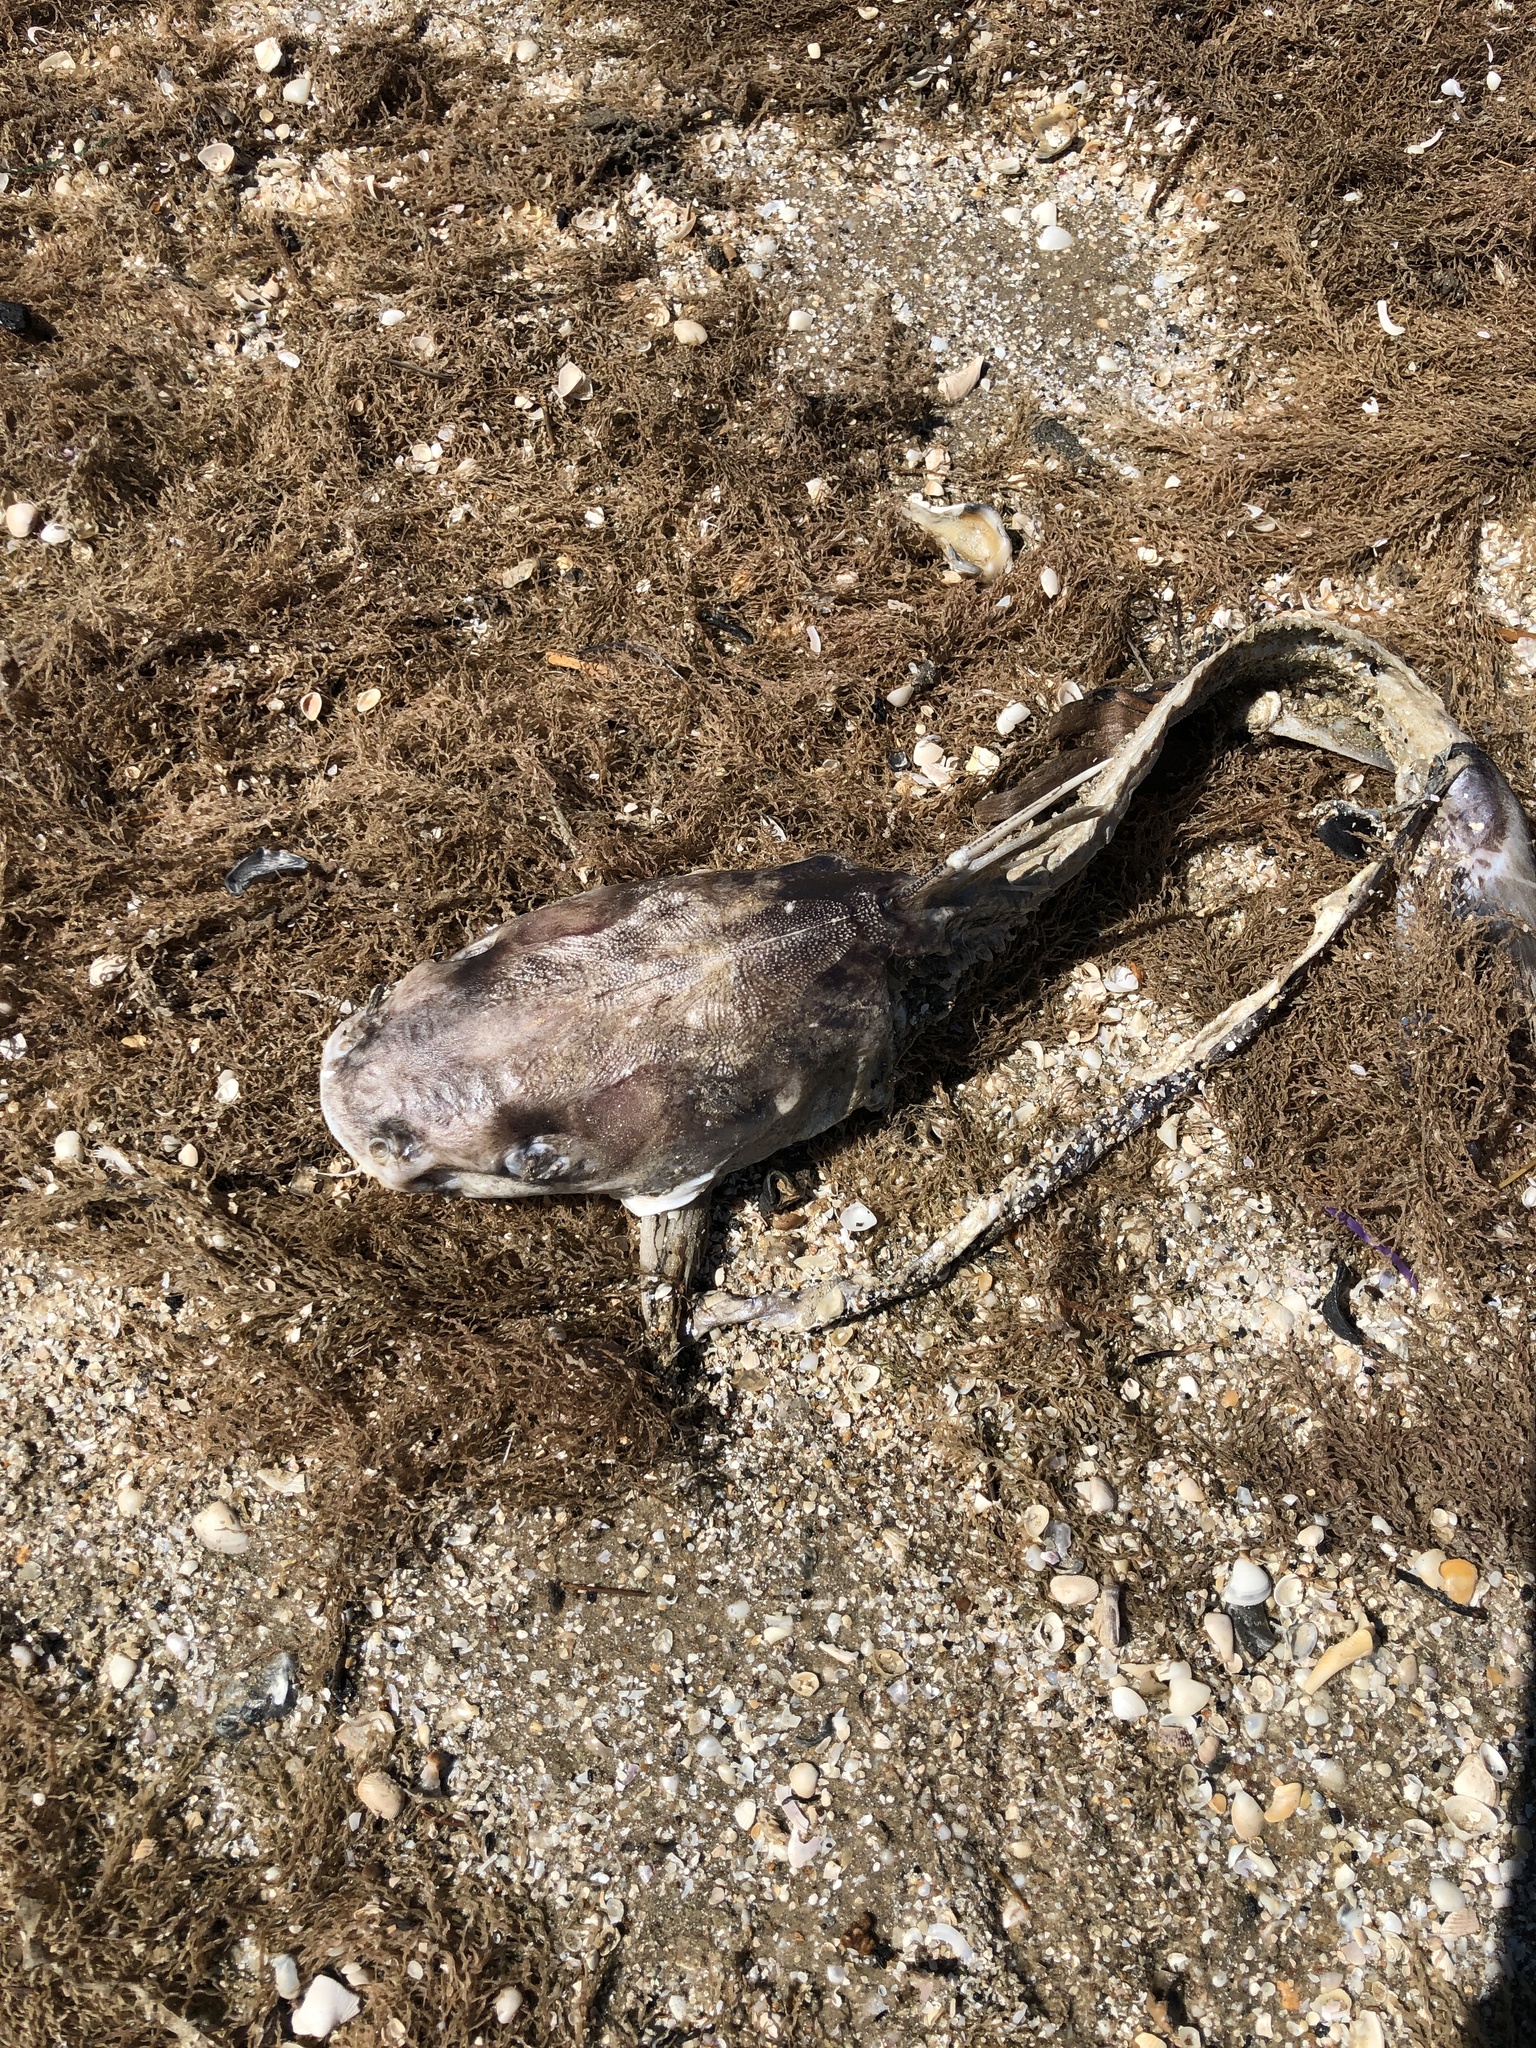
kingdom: Animalia
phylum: Chordata
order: Siluriformes
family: Ariidae
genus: Ariopsis
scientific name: Ariopsis felis
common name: Hardhead catfish
